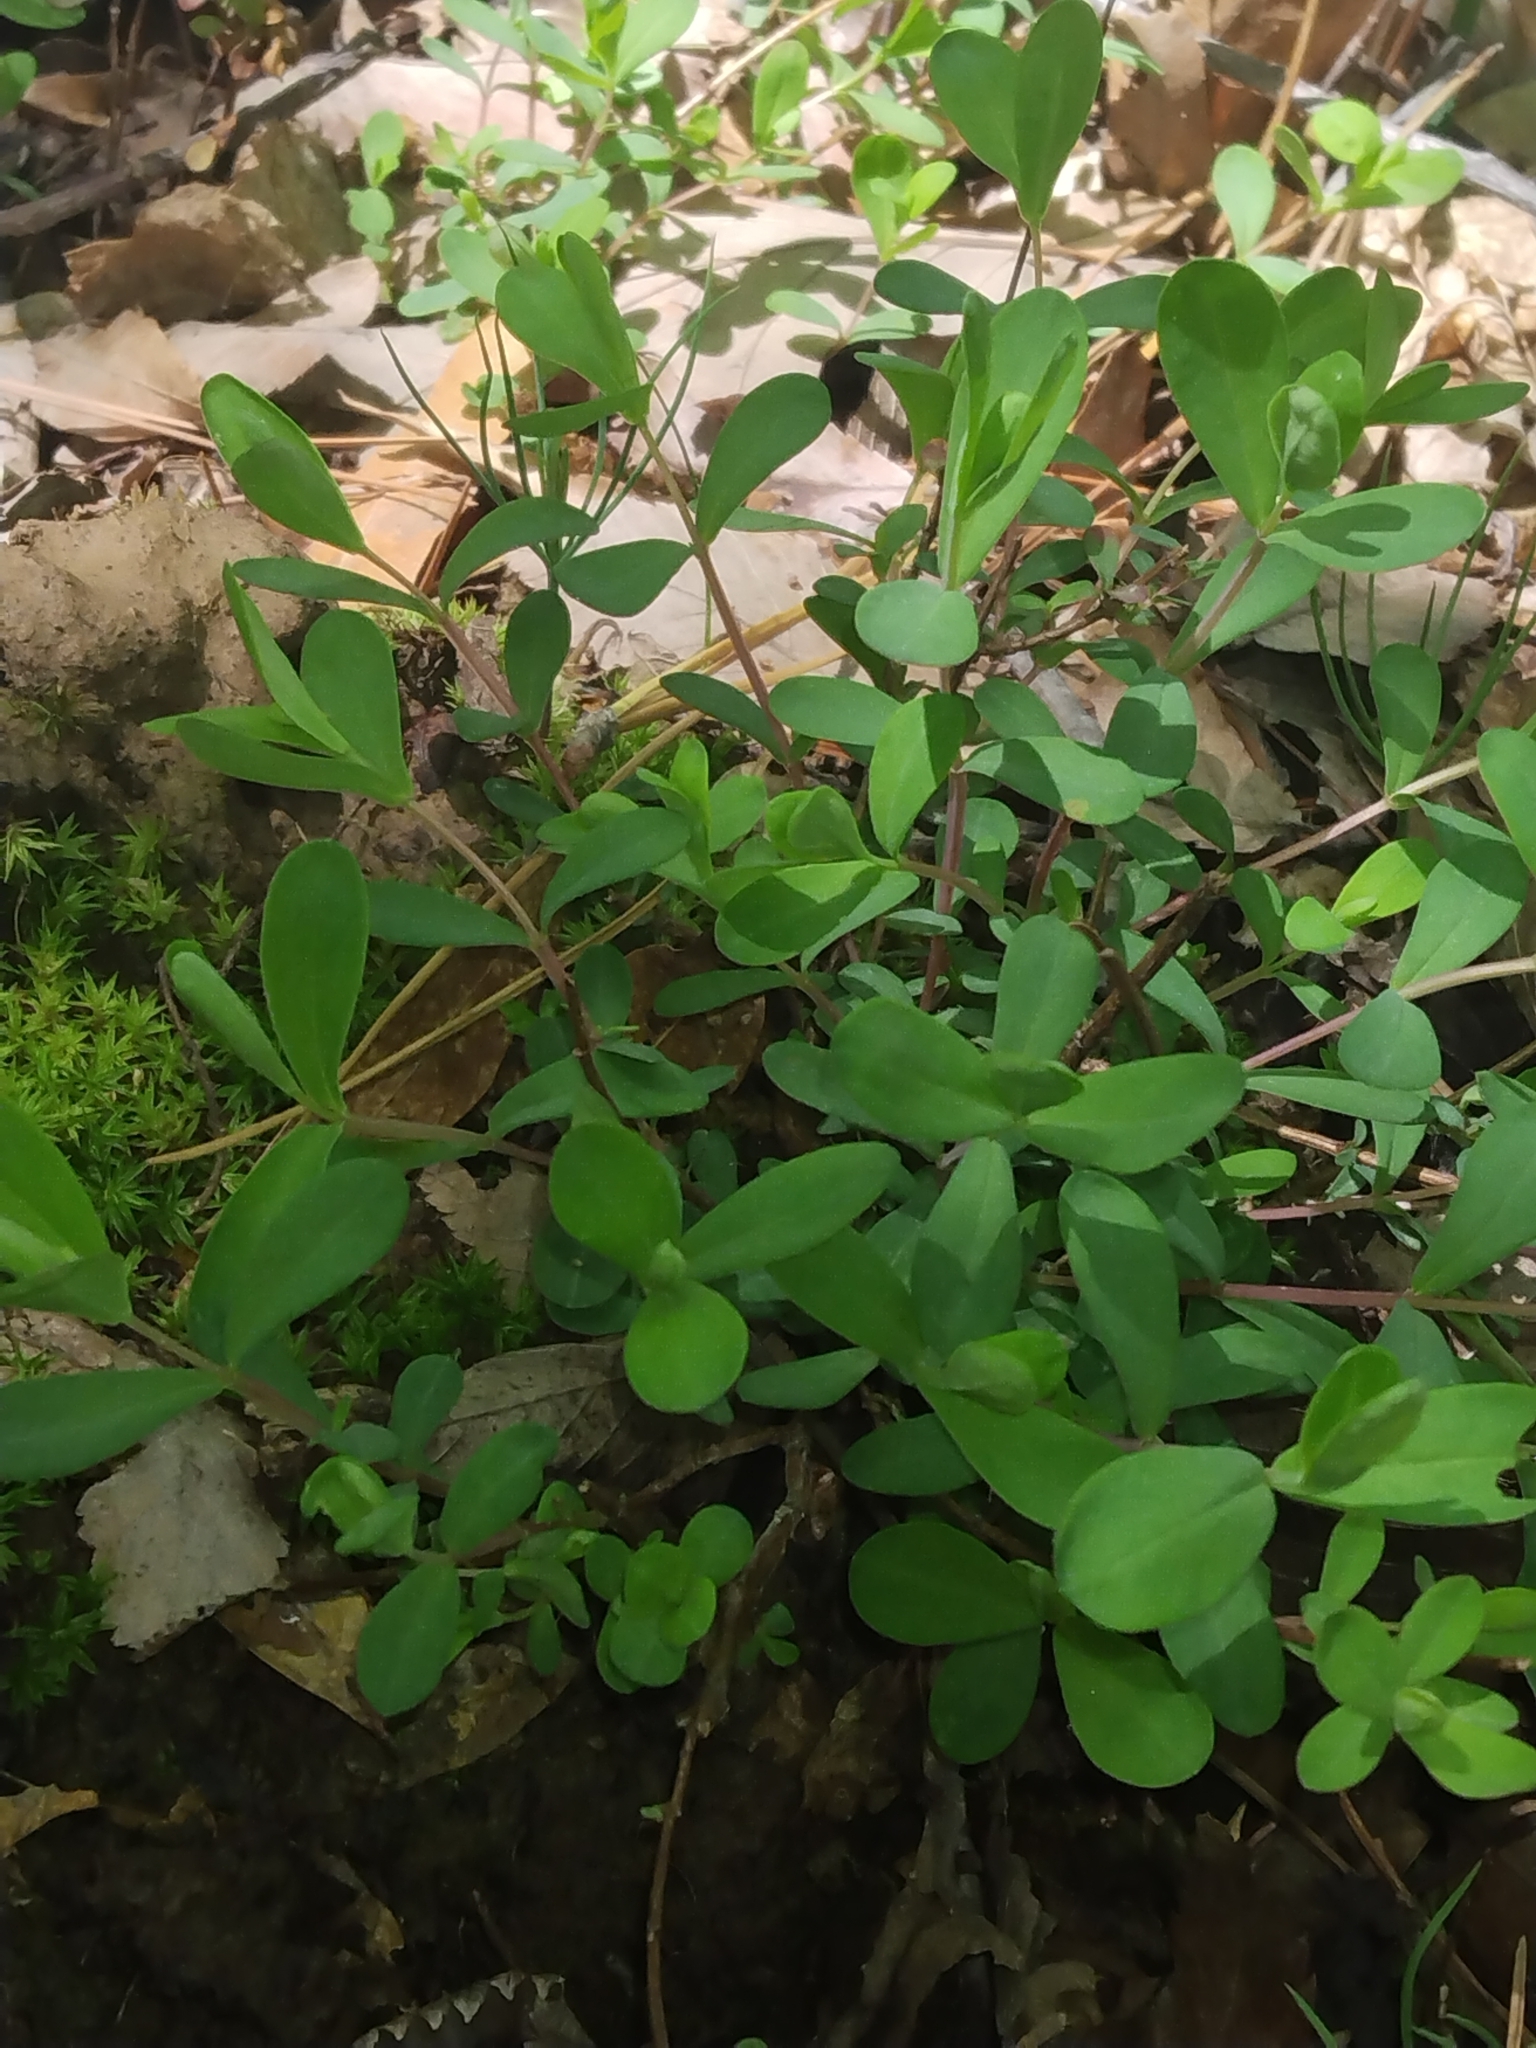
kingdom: Plantae
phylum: Tracheophyta
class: Magnoliopsida
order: Malpighiales
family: Hypericaceae
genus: Hypericum
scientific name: Hypericum hypericoides
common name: St. andrew's cross
